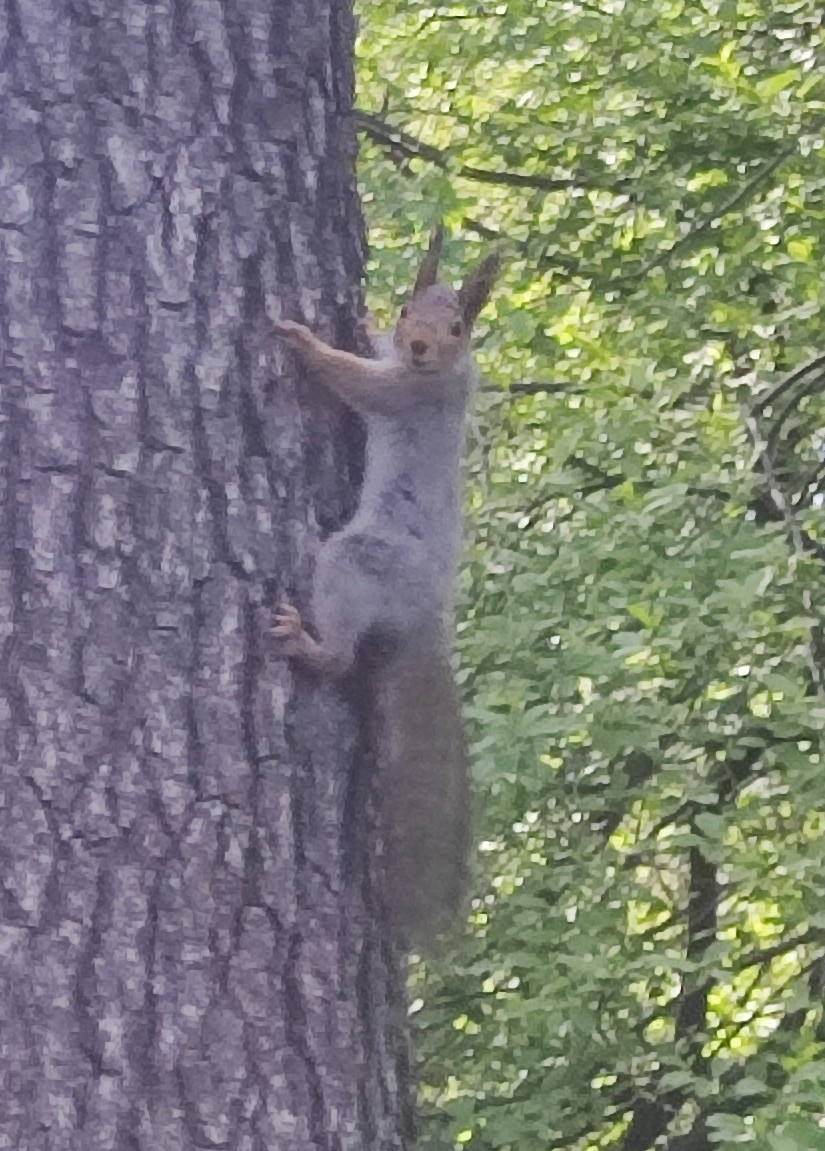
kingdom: Animalia
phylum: Chordata
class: Mammalia
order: Rodentia
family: Sciuridae
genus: Sciurus
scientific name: Sciurus vulgaris
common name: Eurasian red squirrel
